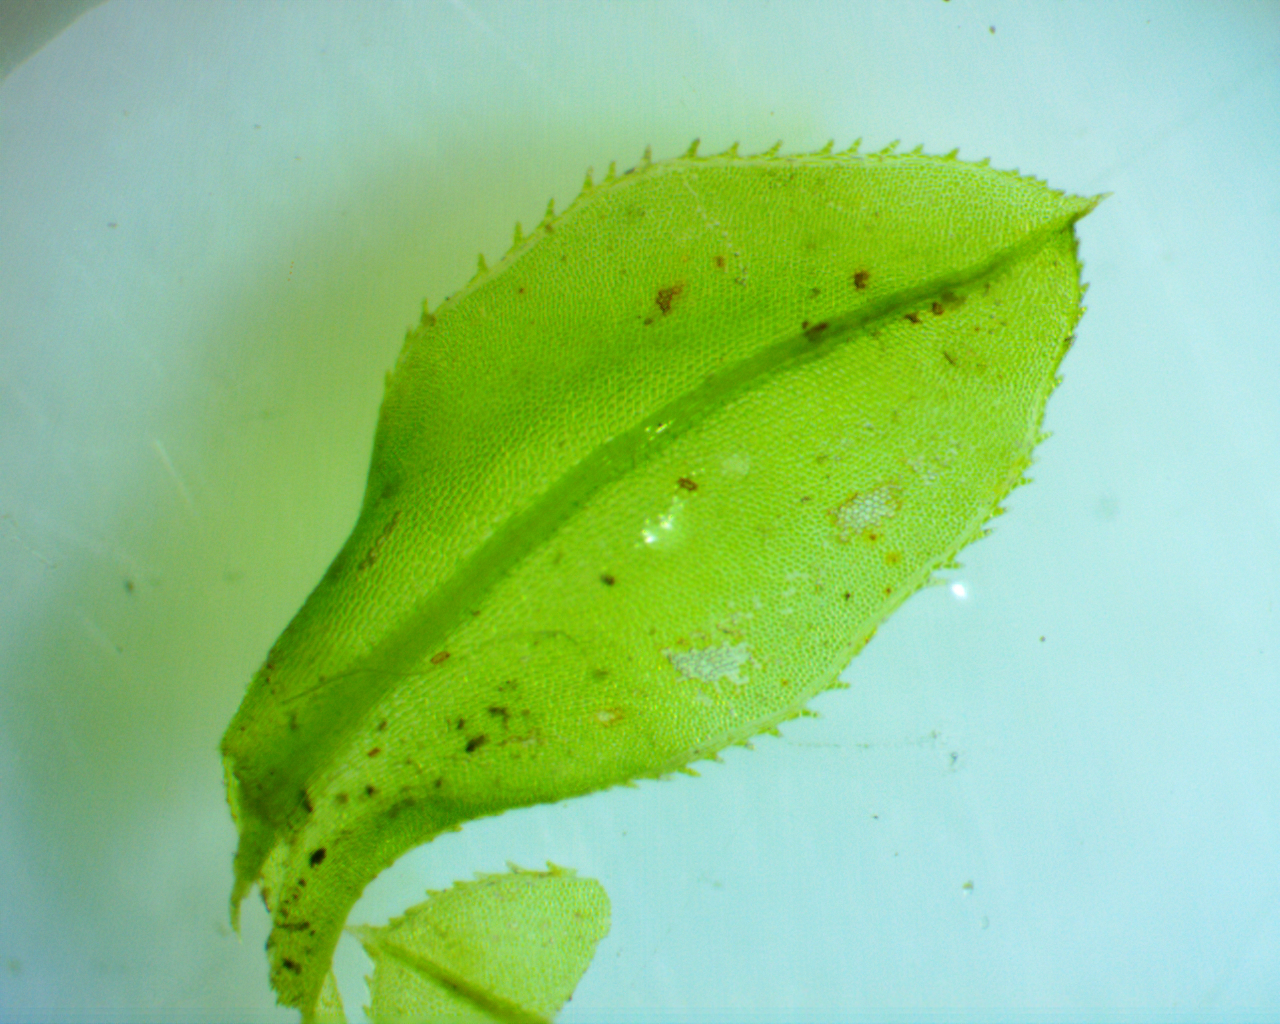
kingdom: Plantae
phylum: Bryophyta
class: Bryopsida
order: Bryales
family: Mniaceae
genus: Plagiomnium
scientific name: Plagiomnium ciliare
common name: Toothed leafy moss
